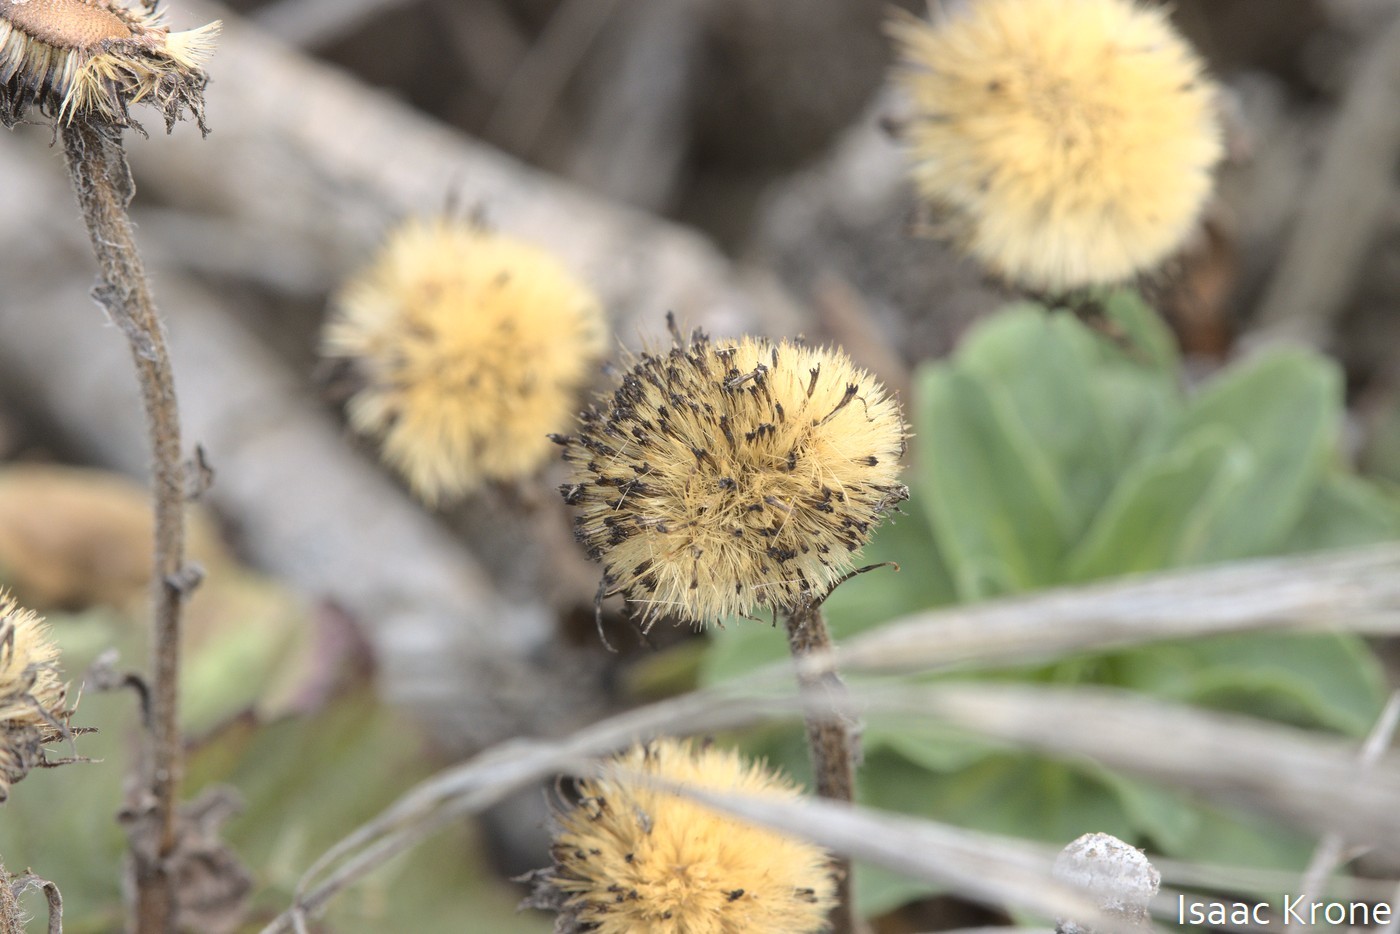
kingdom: Plantae
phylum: Tracheophyta
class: Magnoliopsida
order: Asterales
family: Asteraceae
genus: Erigeron
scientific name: Erigeron glaucus
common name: Seaside daisy
